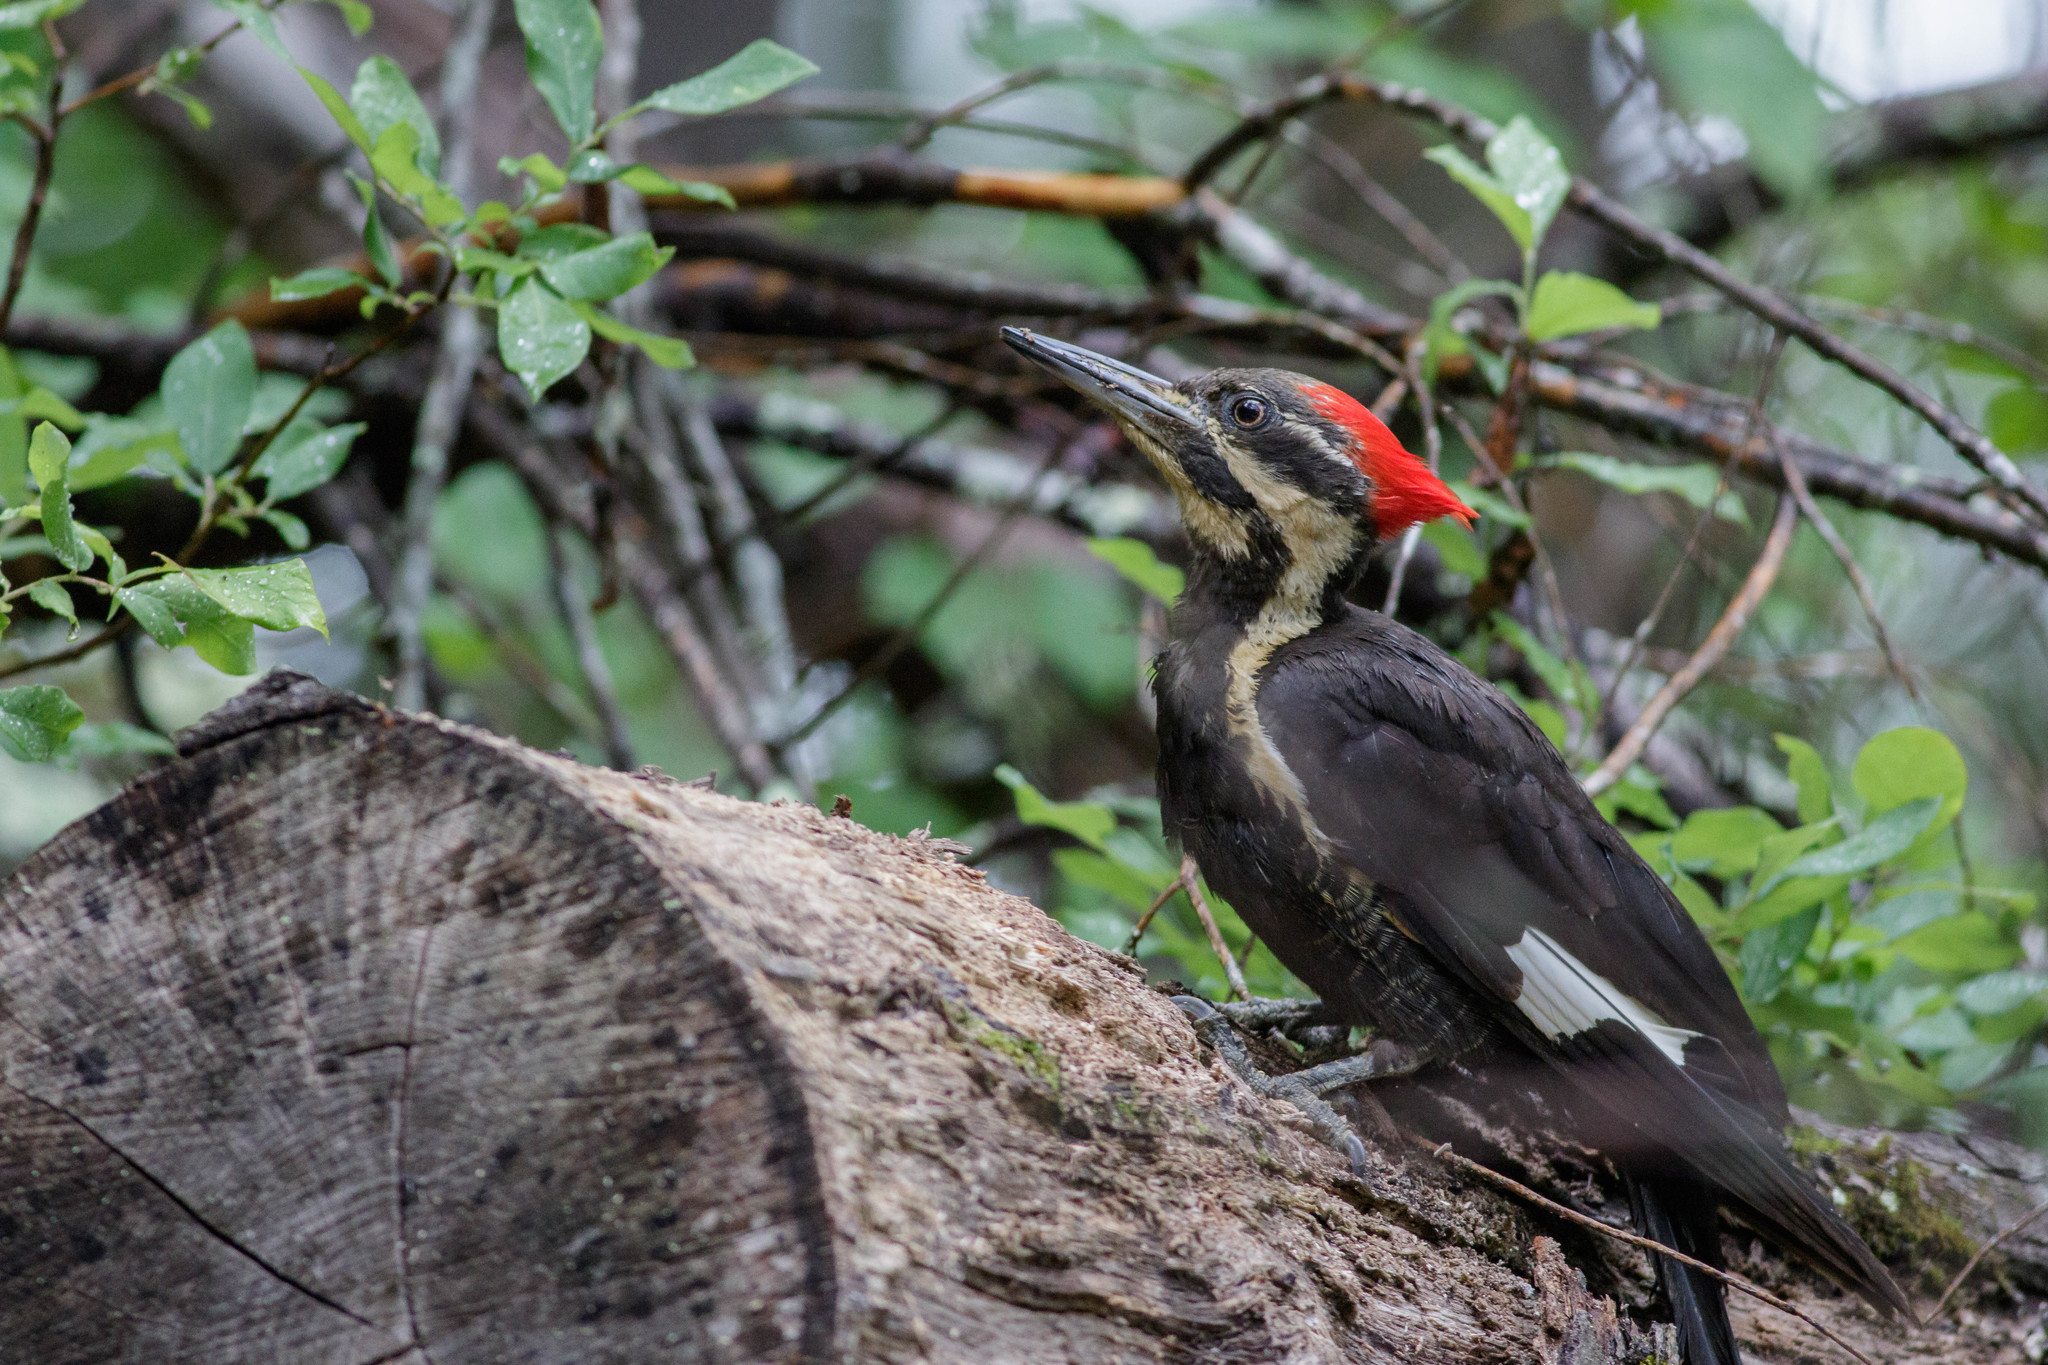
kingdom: Animalia
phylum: Chordata
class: Aves
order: Piciformes
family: Picidae
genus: Dryocopus
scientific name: Dryocopus pileatus
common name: Pileated woodpecker
